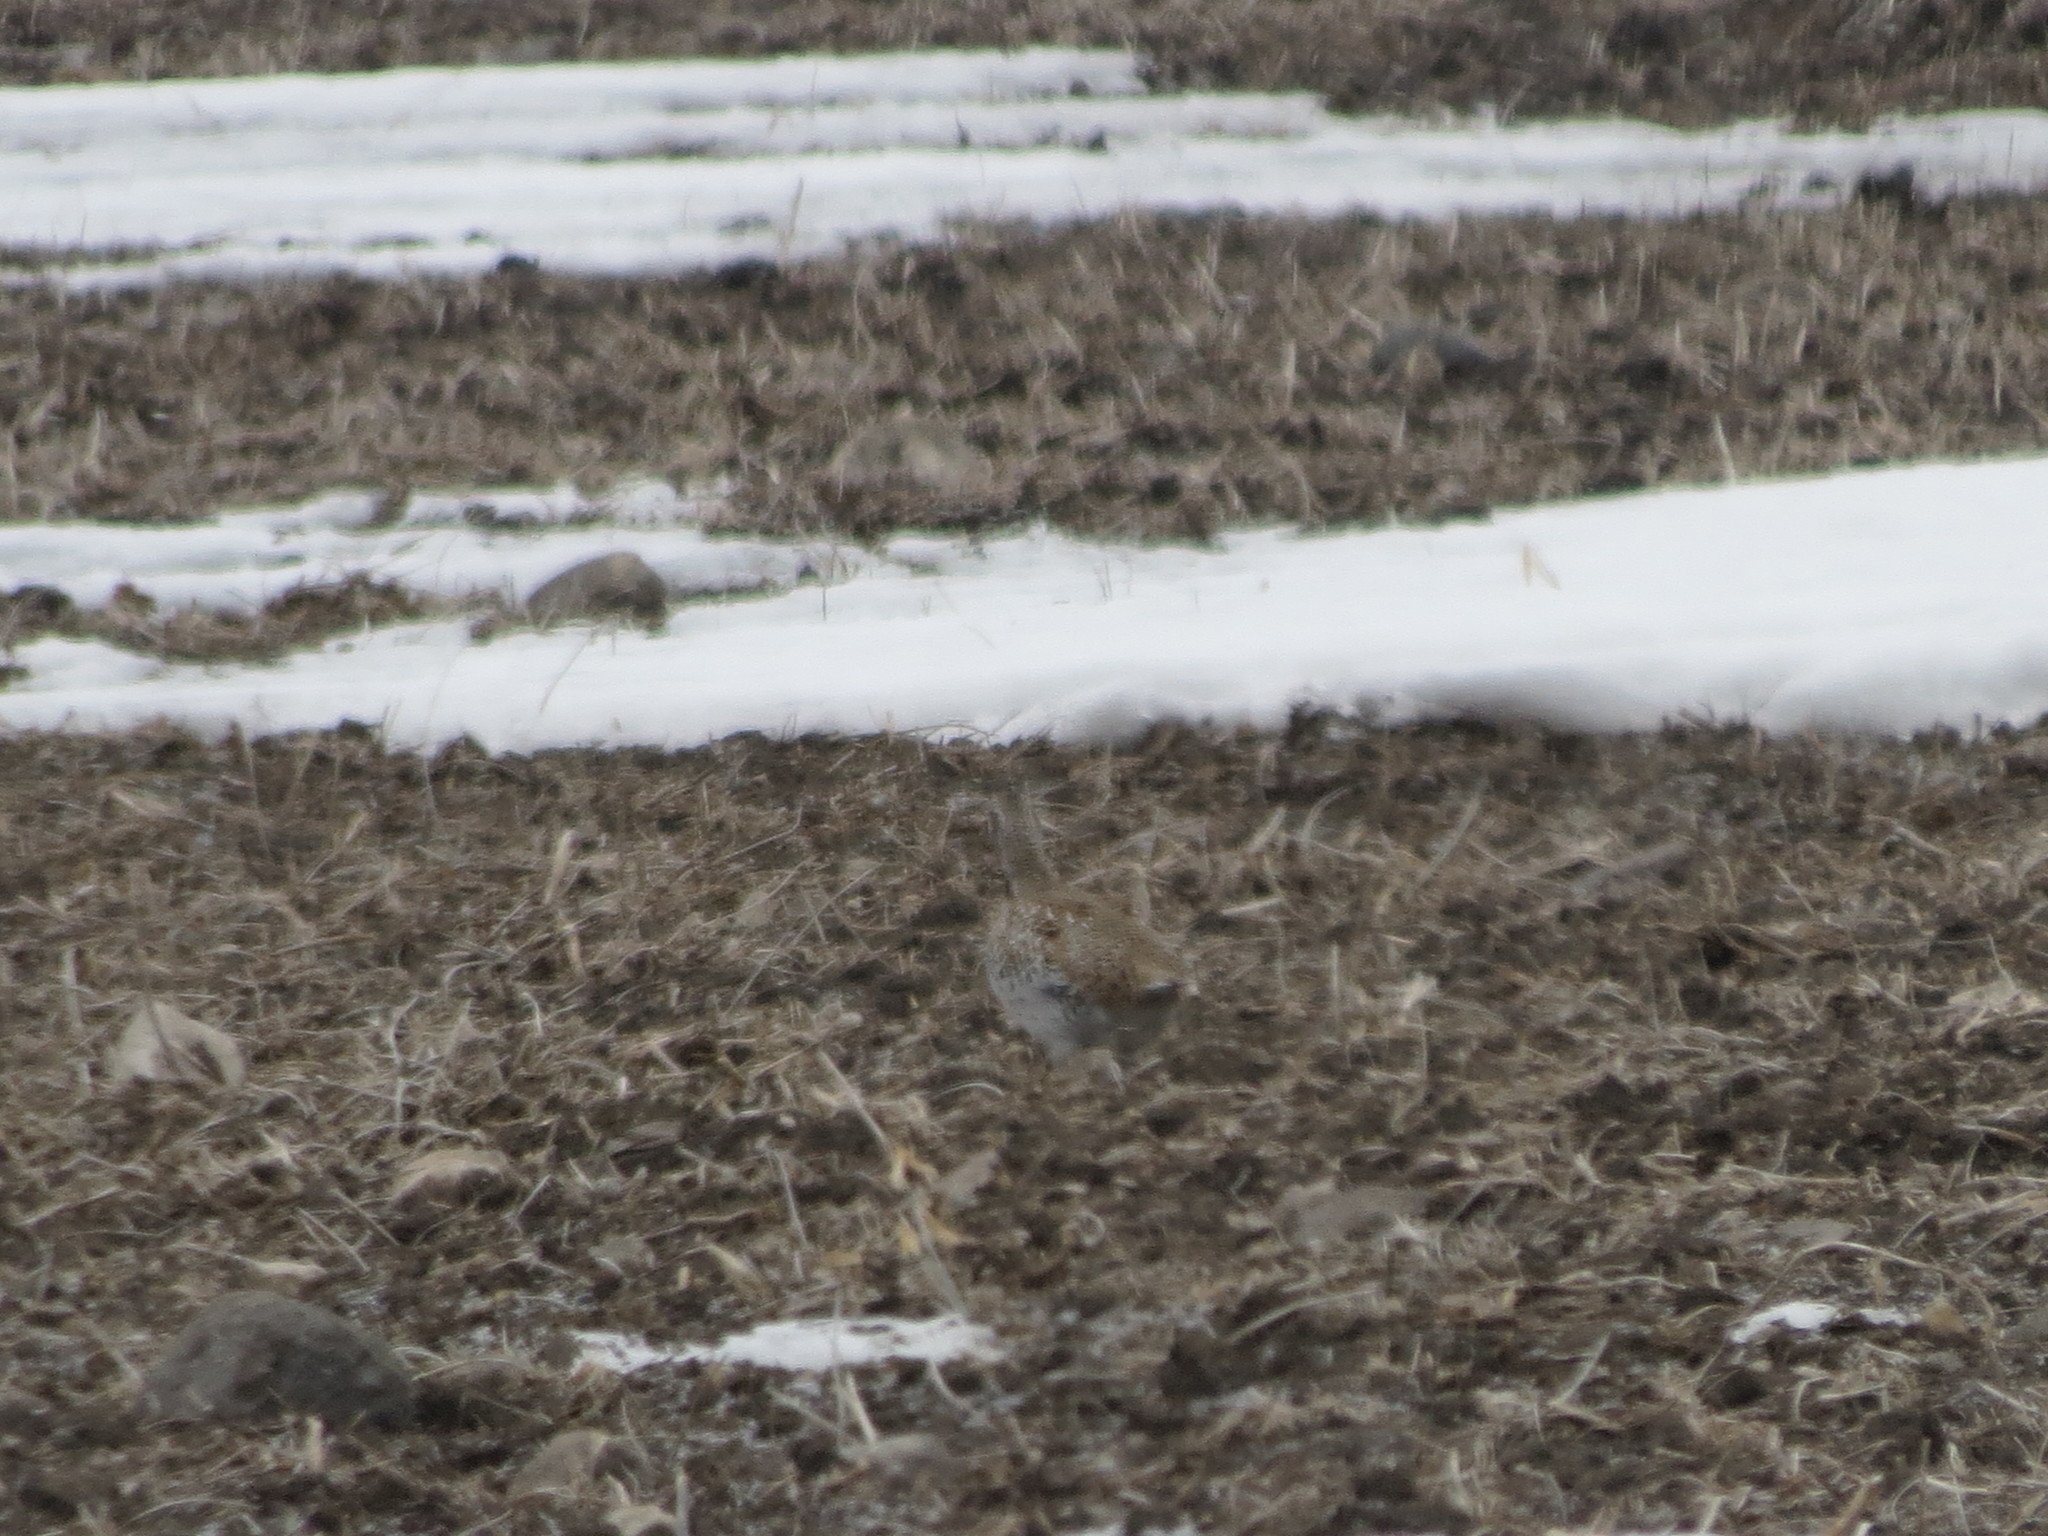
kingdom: Animalia
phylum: Chordata
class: Aves
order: Galliformes
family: Phasianidae
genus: Tympanuchus
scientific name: Tympanuchus phasianellus
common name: Sharp-tailed grouse
